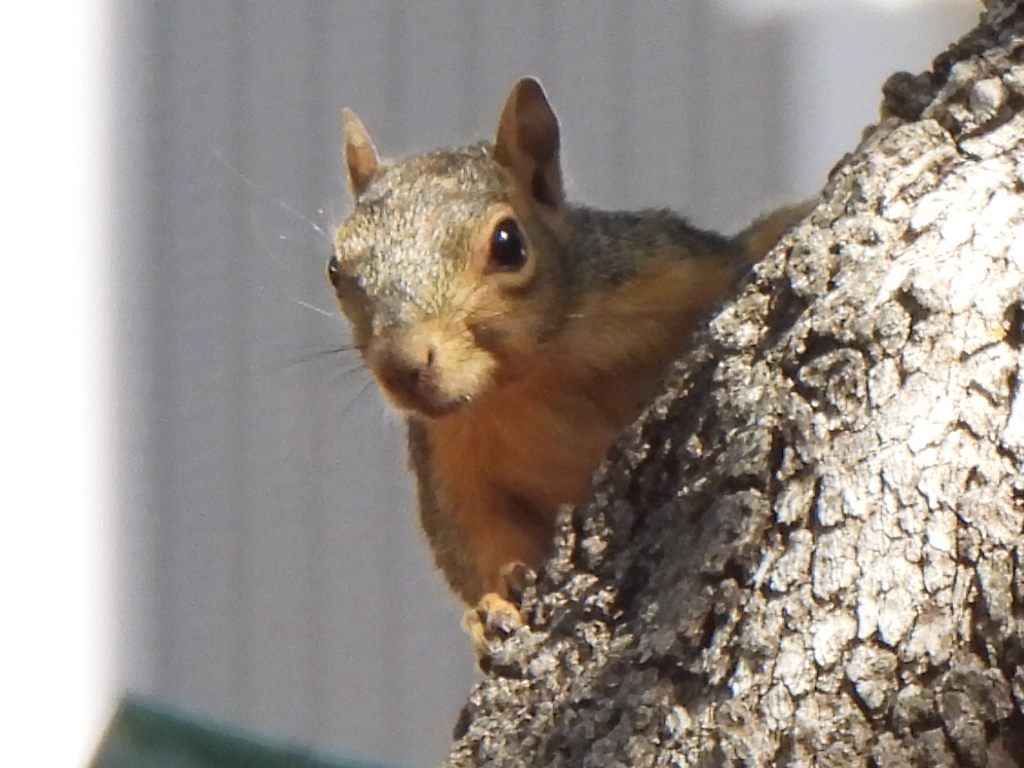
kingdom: Animalia
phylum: Chordata
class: Mammalia
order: Rodentia
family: Sciuridae
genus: Sciurus
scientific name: Sciurus niger
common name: Fox squirrel
